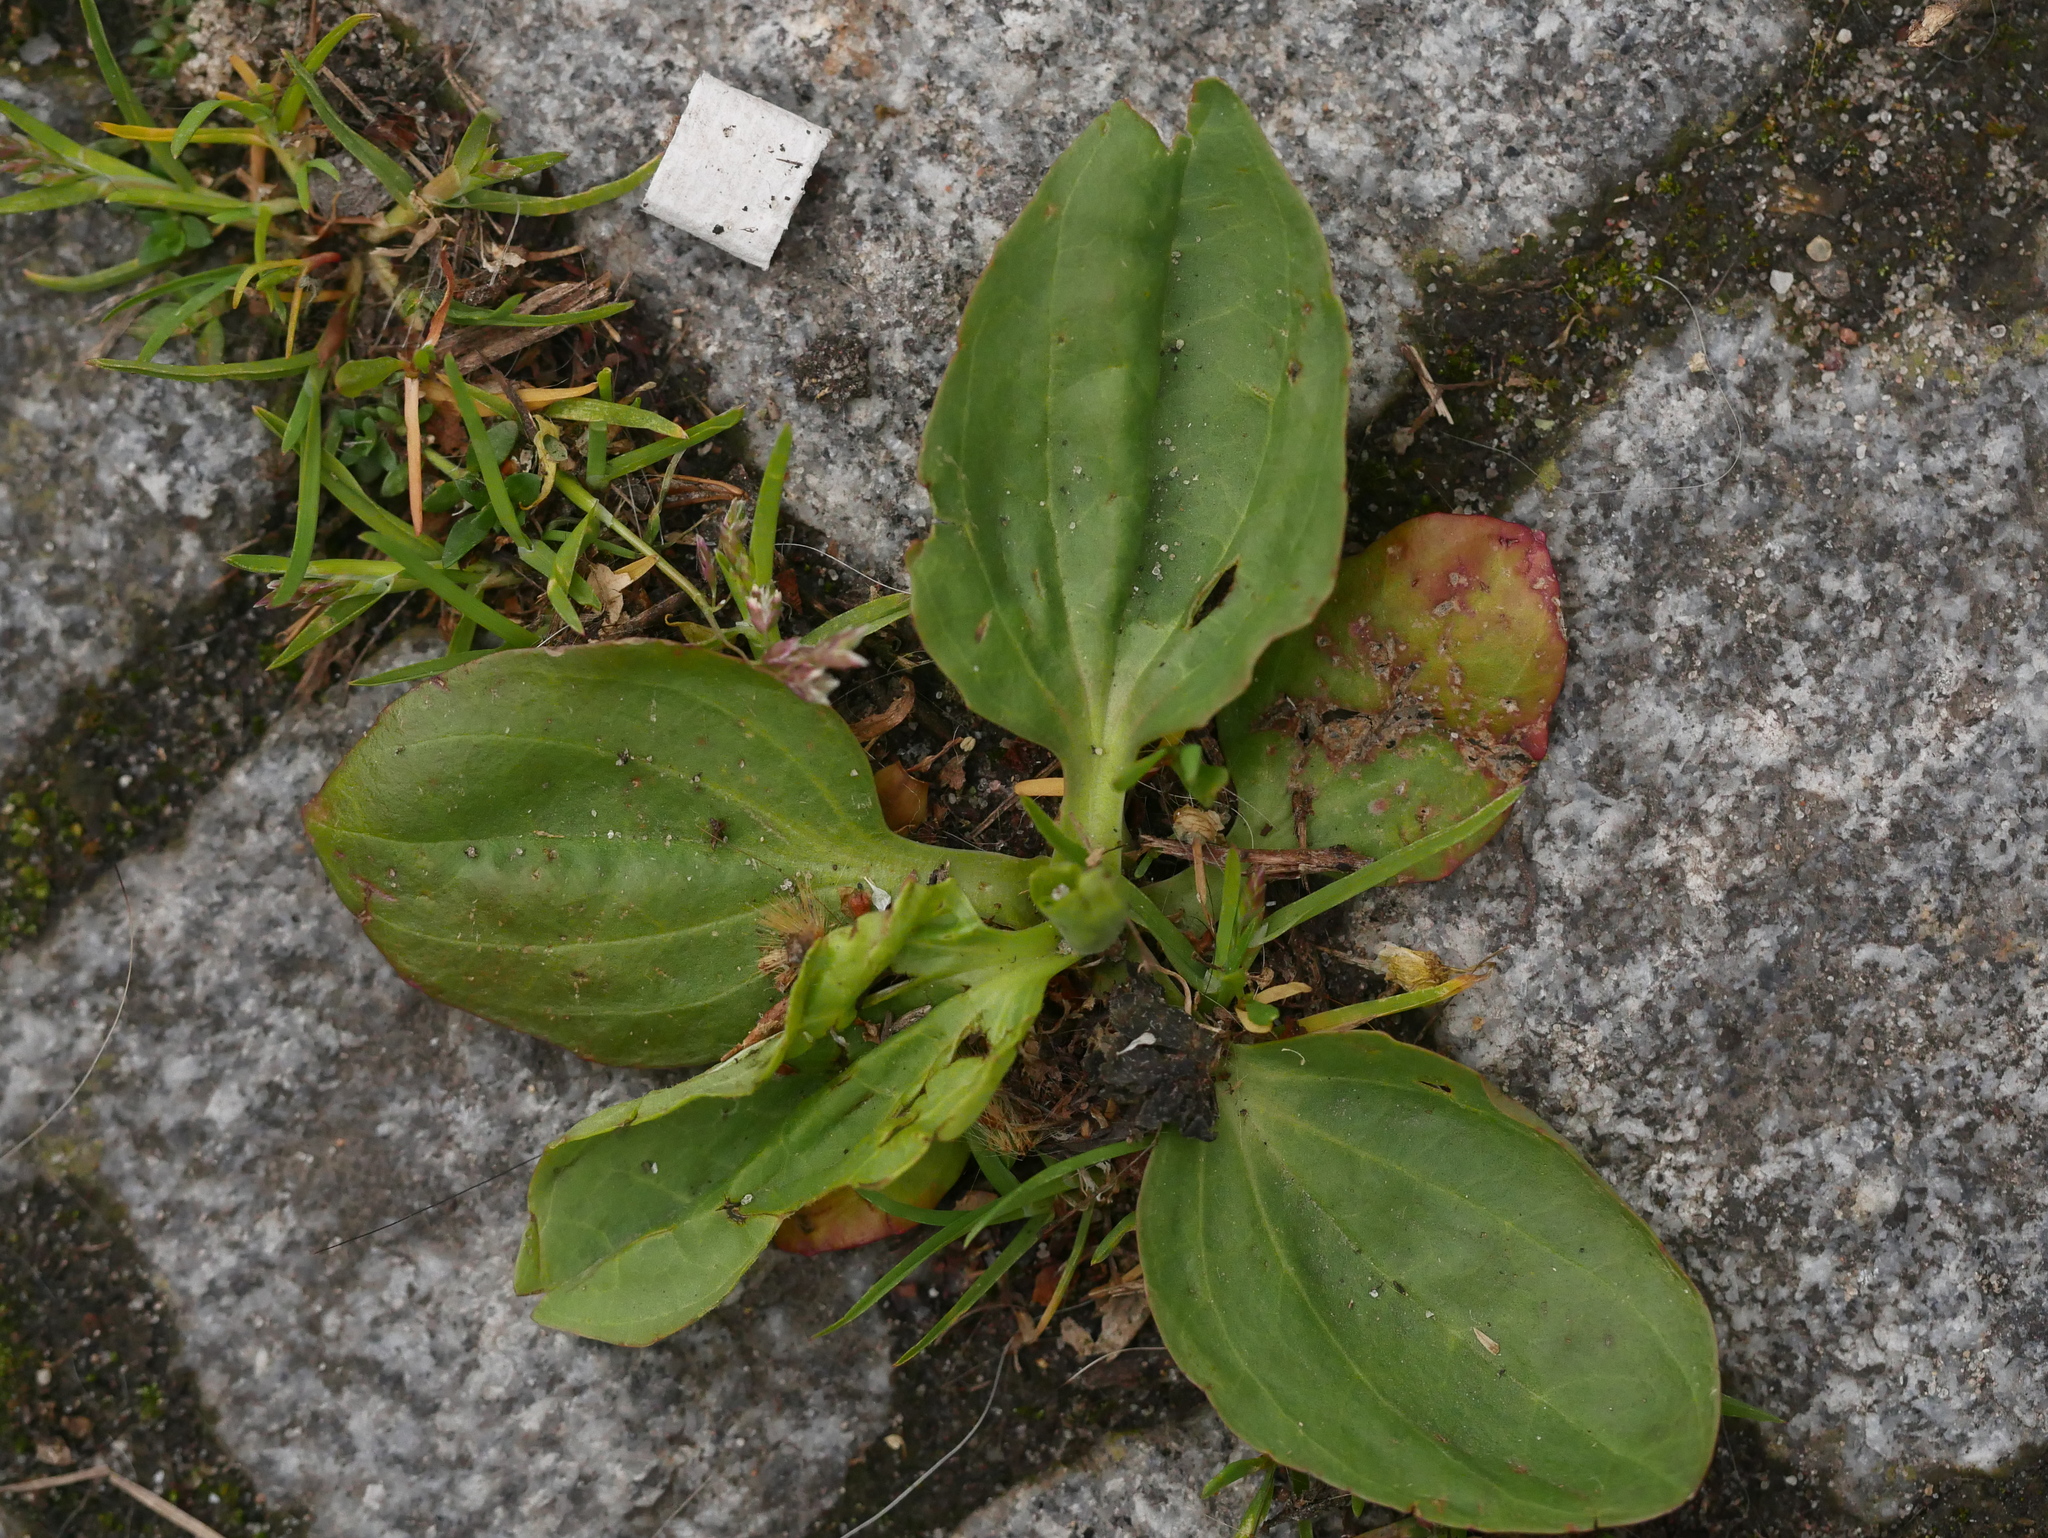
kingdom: Plantae
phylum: Tracheophyta
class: Magnoliopsida
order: Lamiales
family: Plantaginaceae
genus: Plantago
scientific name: Plantago major
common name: Common plantain
